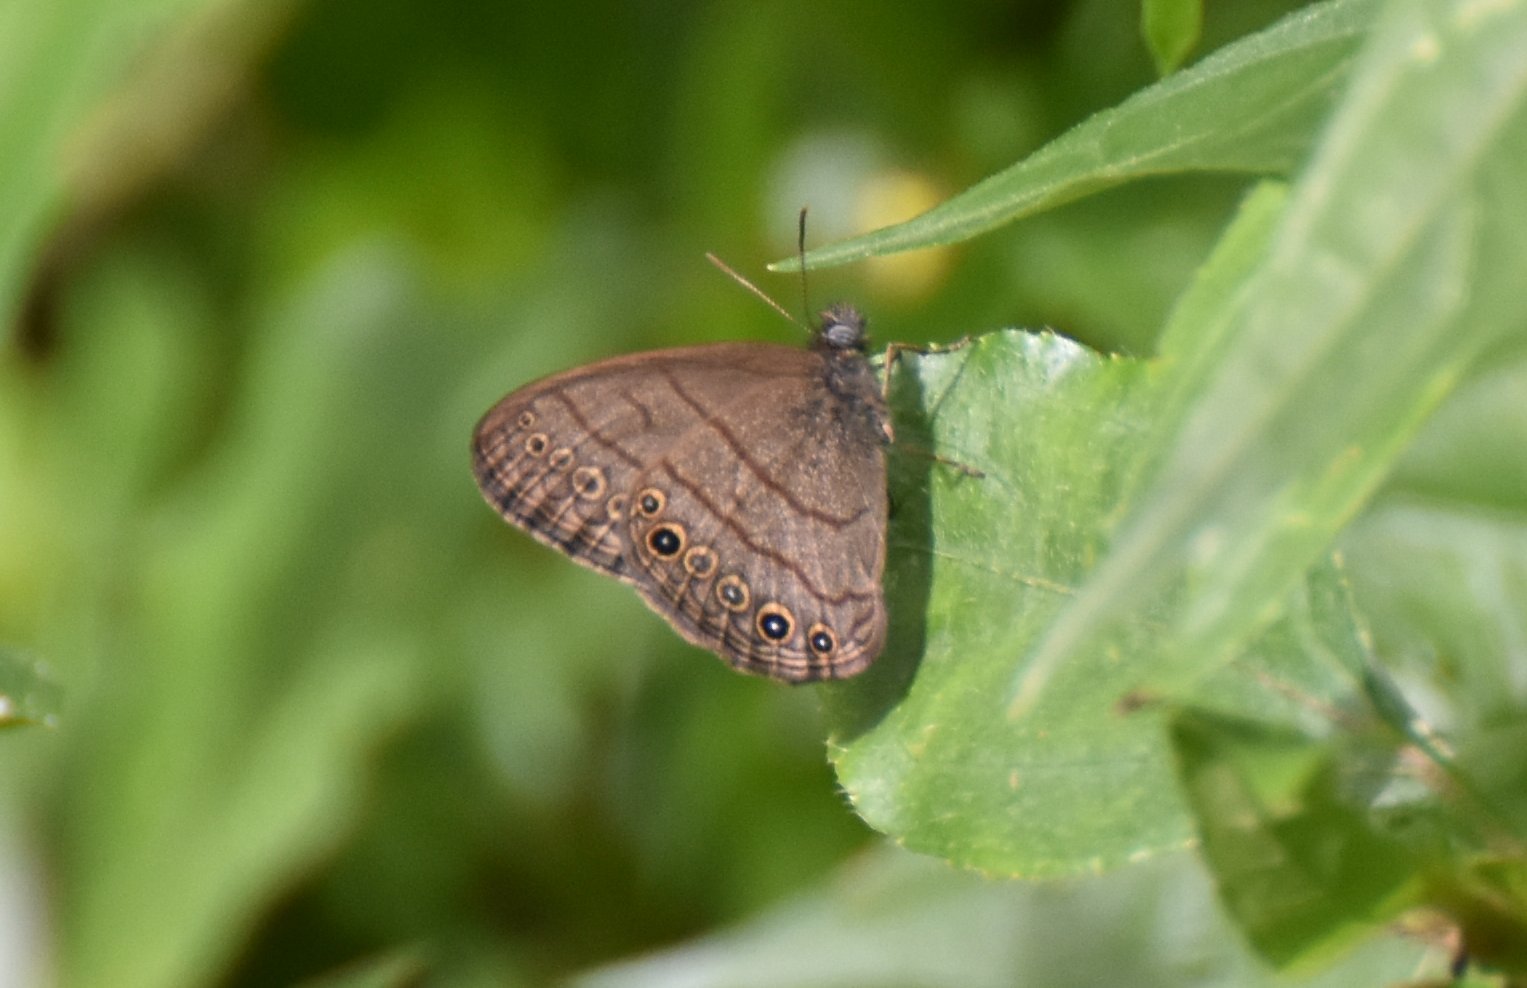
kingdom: Animalia
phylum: Arthropoda
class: Insecta
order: Lepidoptera
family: Nymphalidae
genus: Hermeuptychia
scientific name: Hermeuptychia canthe
